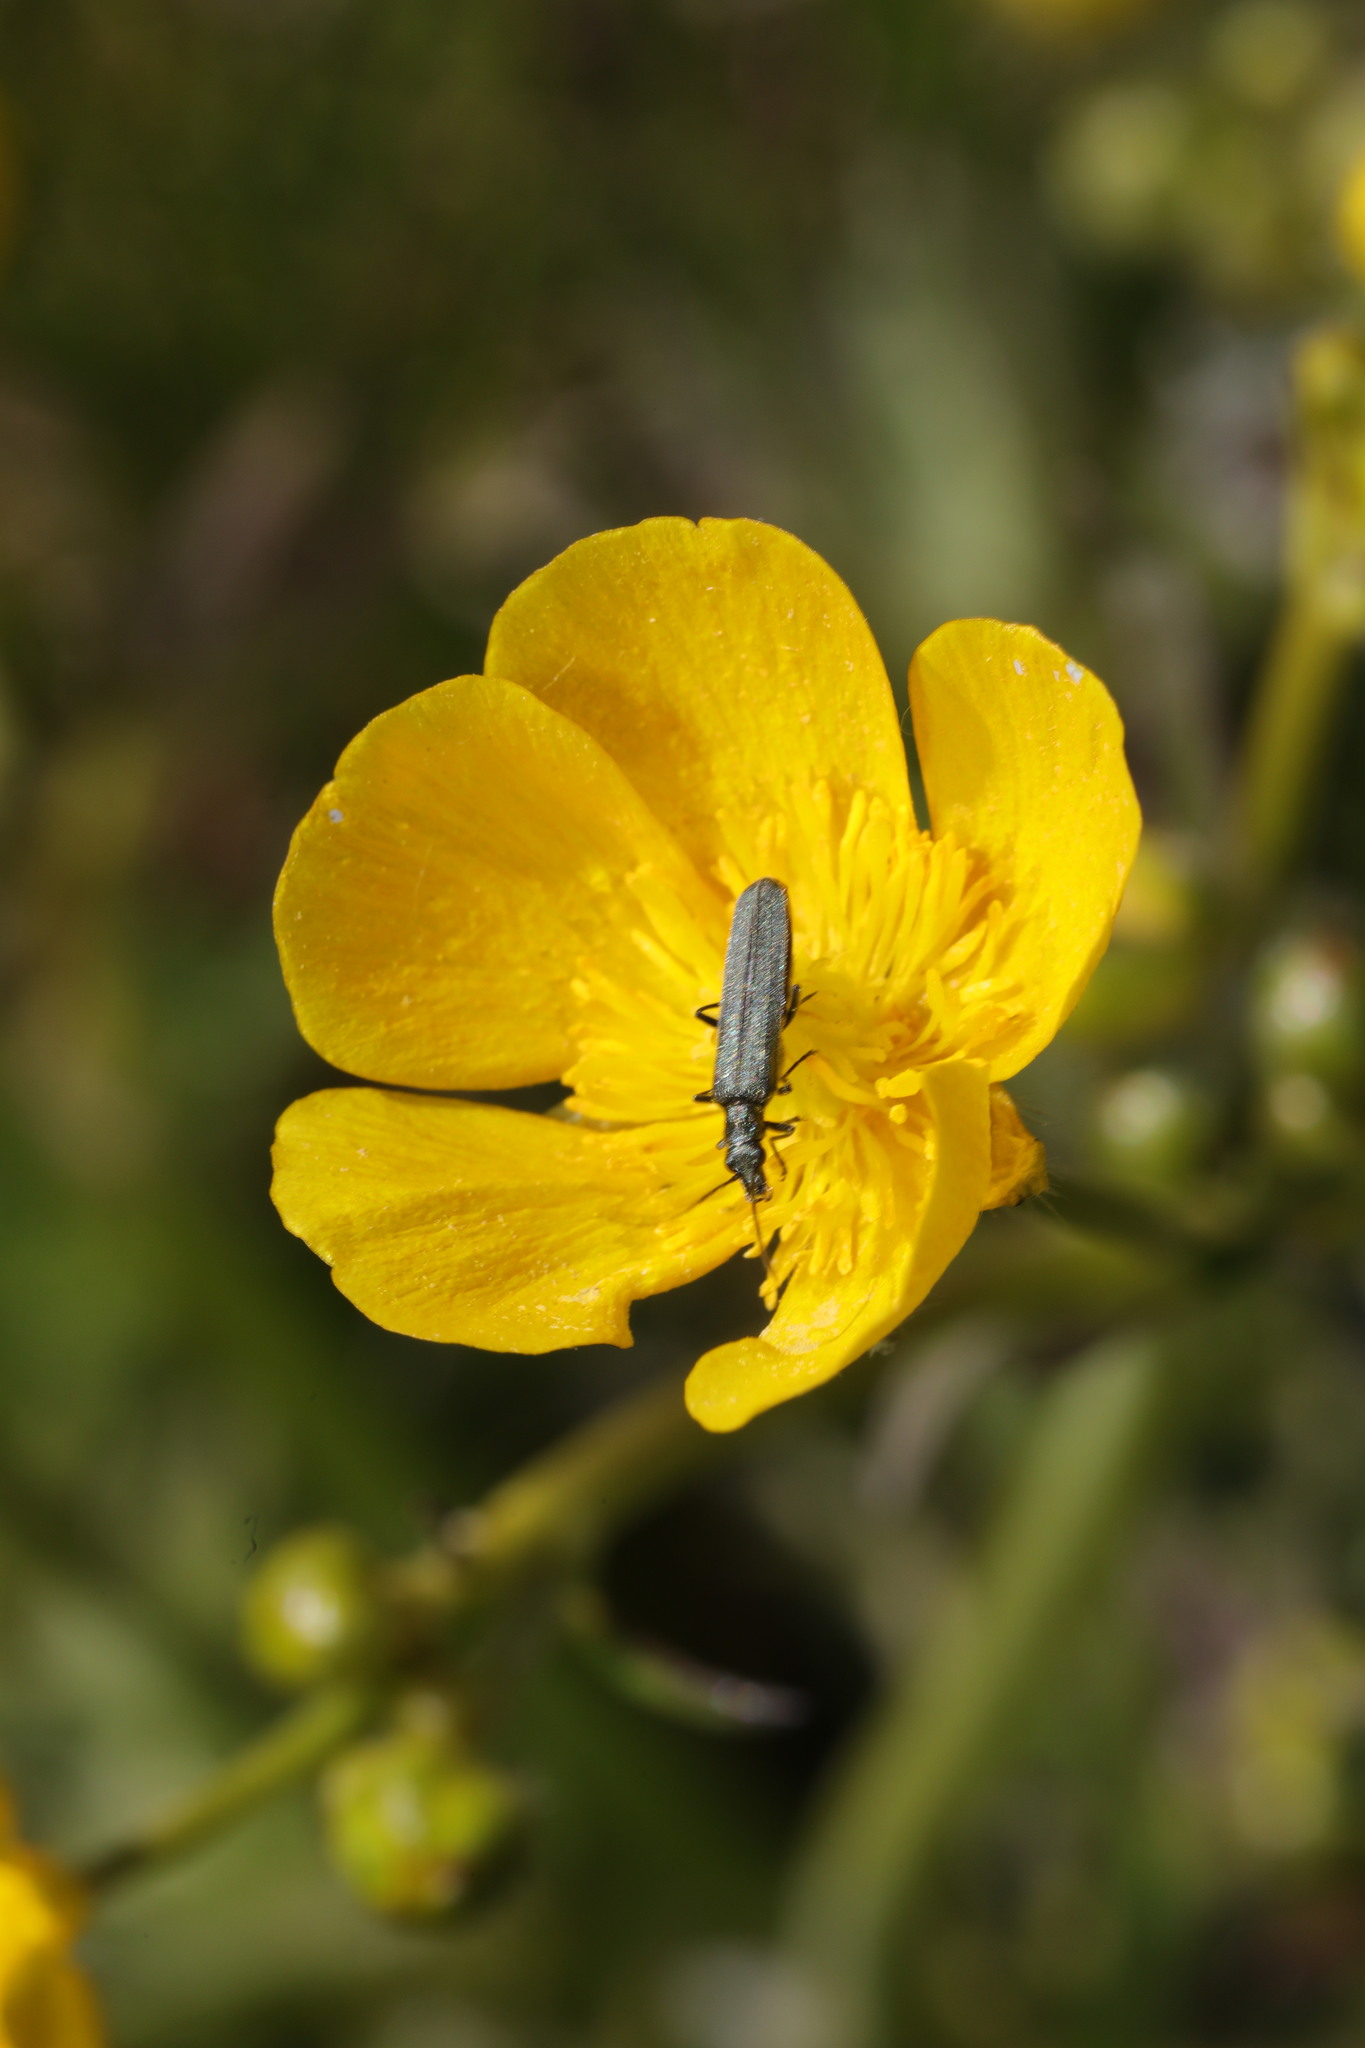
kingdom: Animalia
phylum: Arthropoda
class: Insecta
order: Coleoptera
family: Oedemeridae
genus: Oedemera
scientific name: Oedemera lurida
